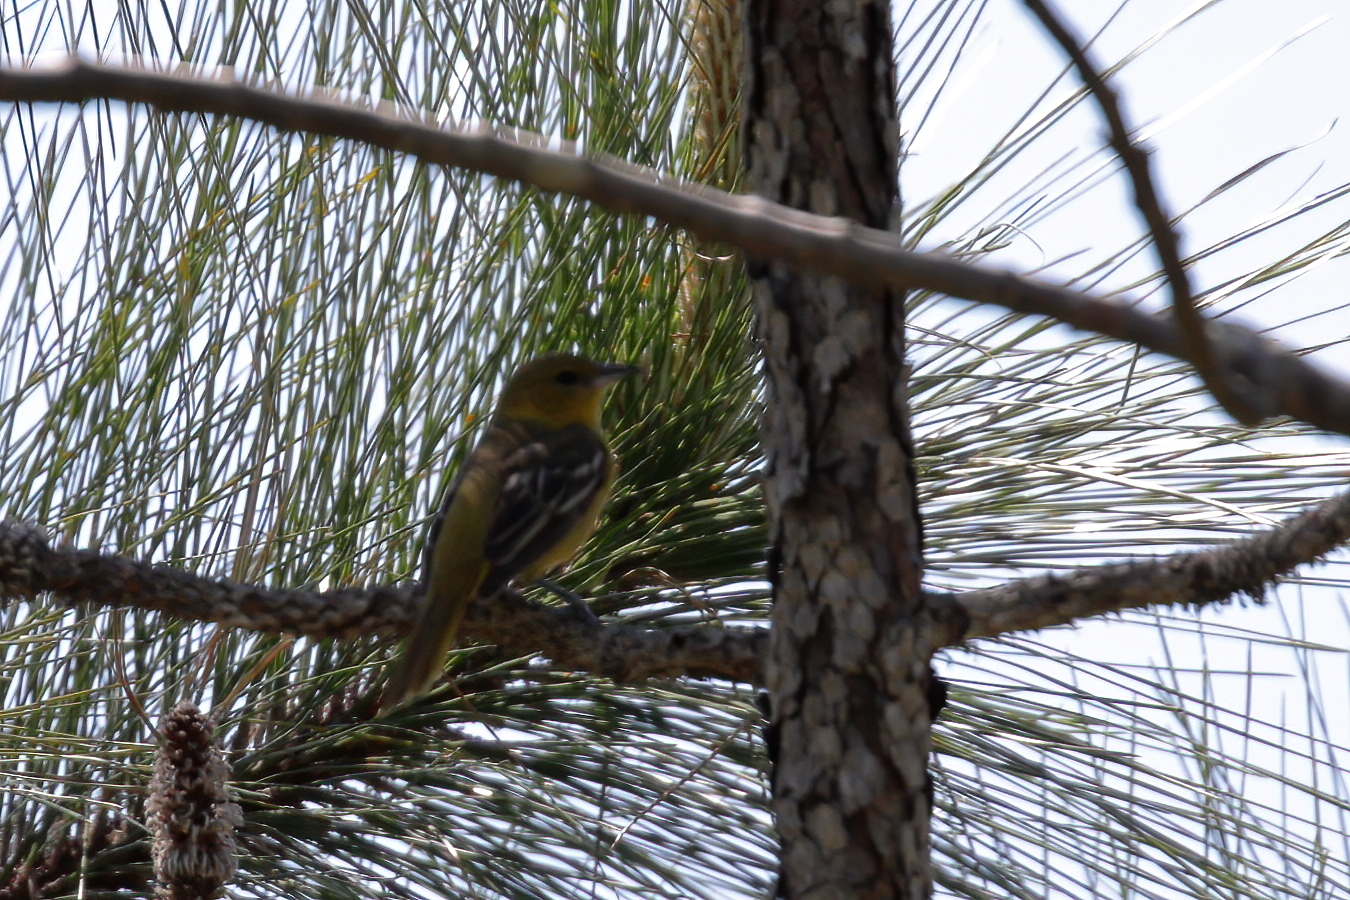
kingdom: Animalia
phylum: Chordata
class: Aves
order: Passeriformes
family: Icteridae
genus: Icterus
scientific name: Icterus galbula
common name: Baltimore oriole
